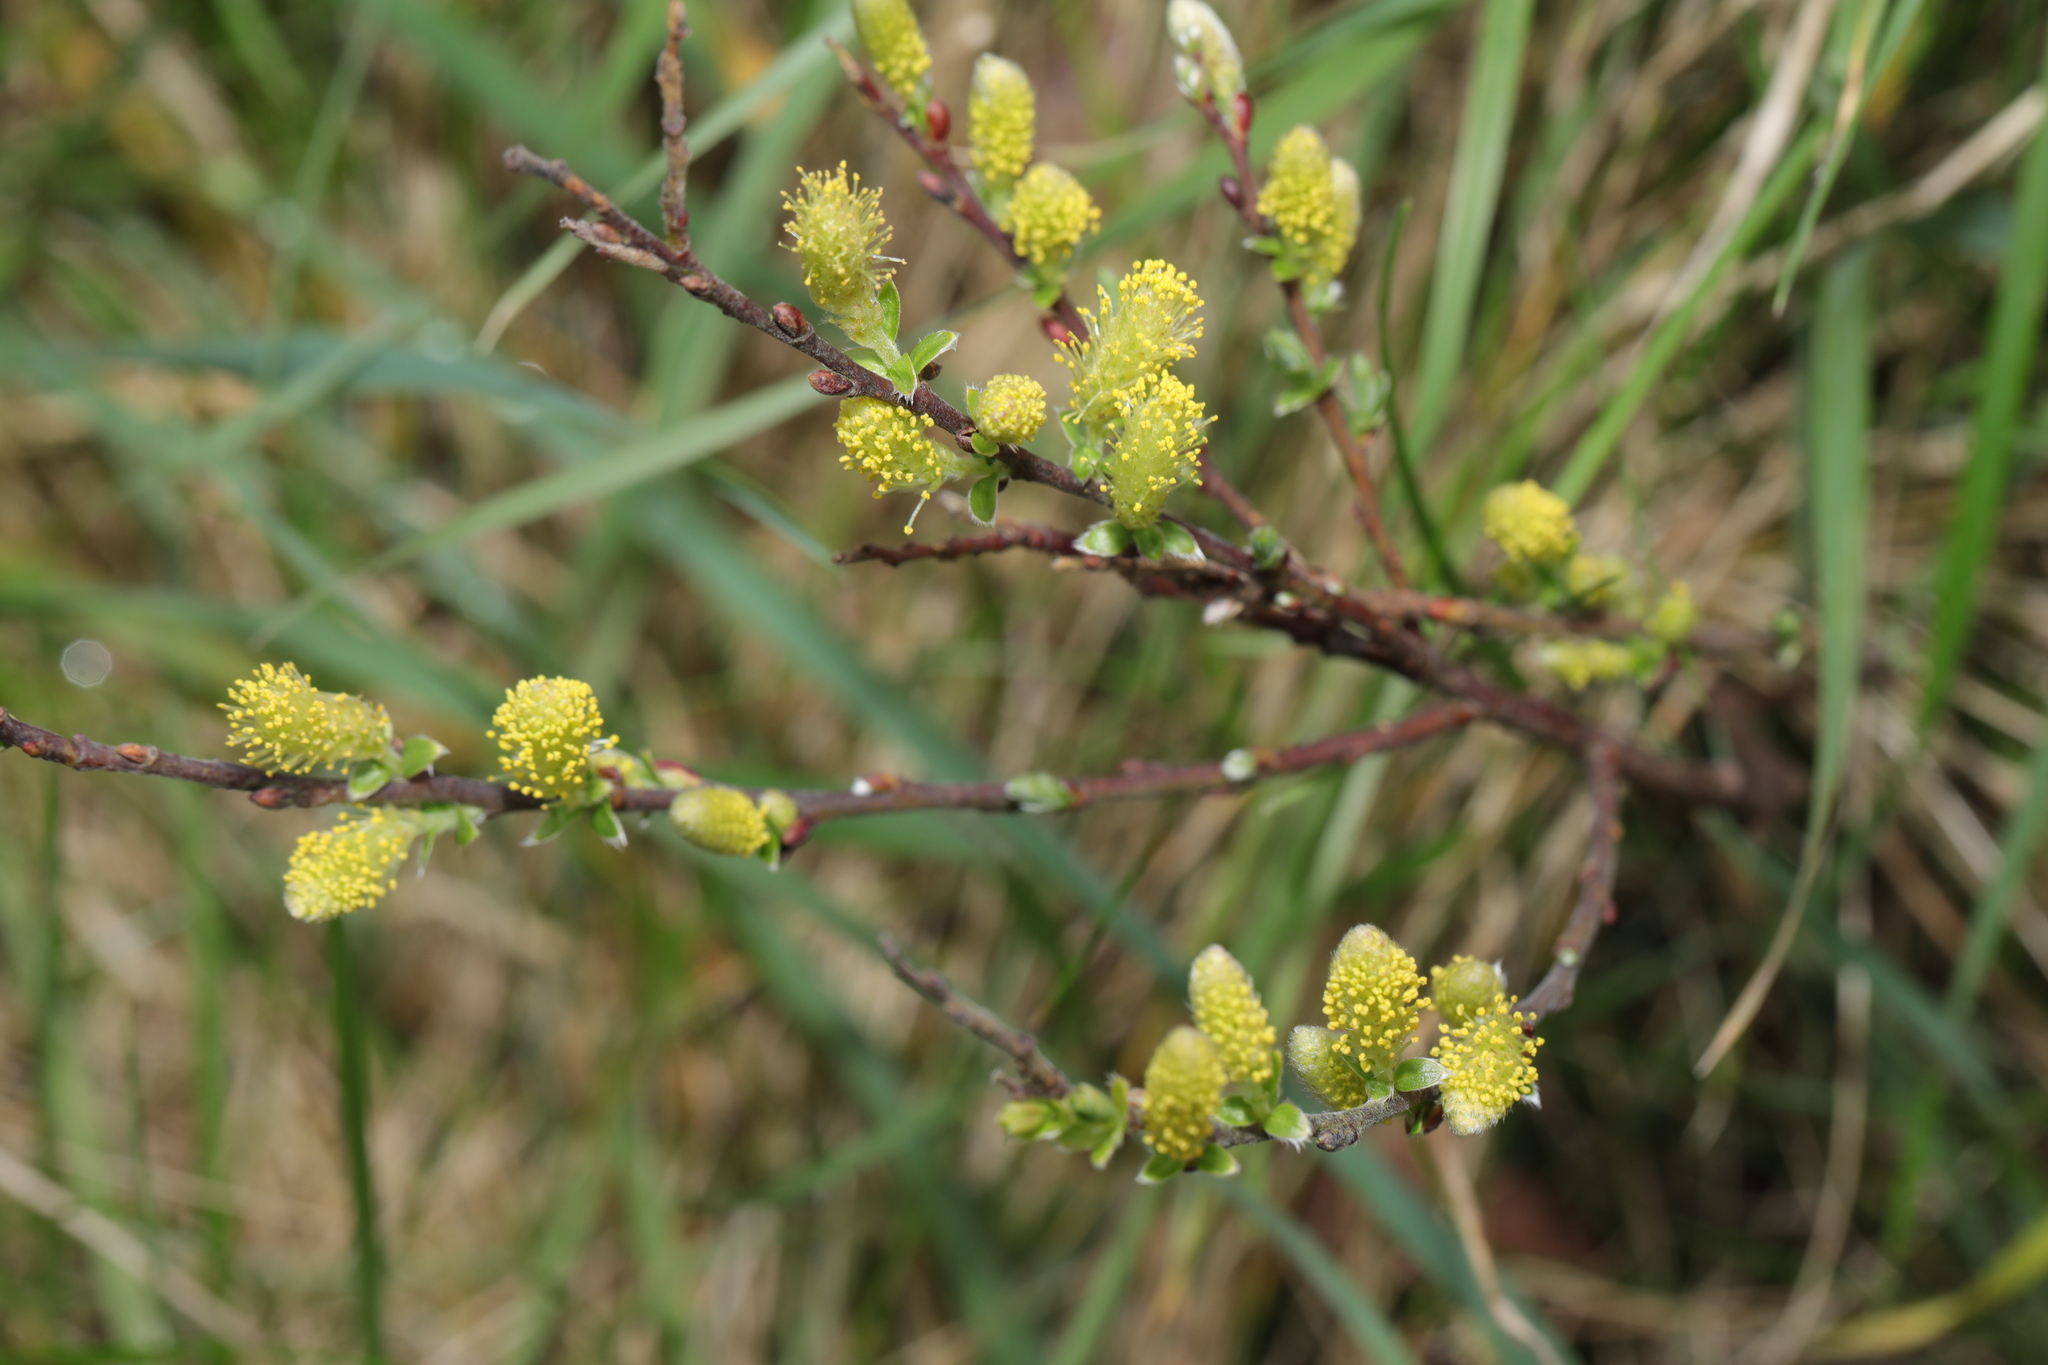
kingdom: Plantae
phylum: Tracheophyta
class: Magnoliopsida
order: Malpighiales
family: Salicaceae
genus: Salix
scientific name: Salix repens
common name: Creeping willow
